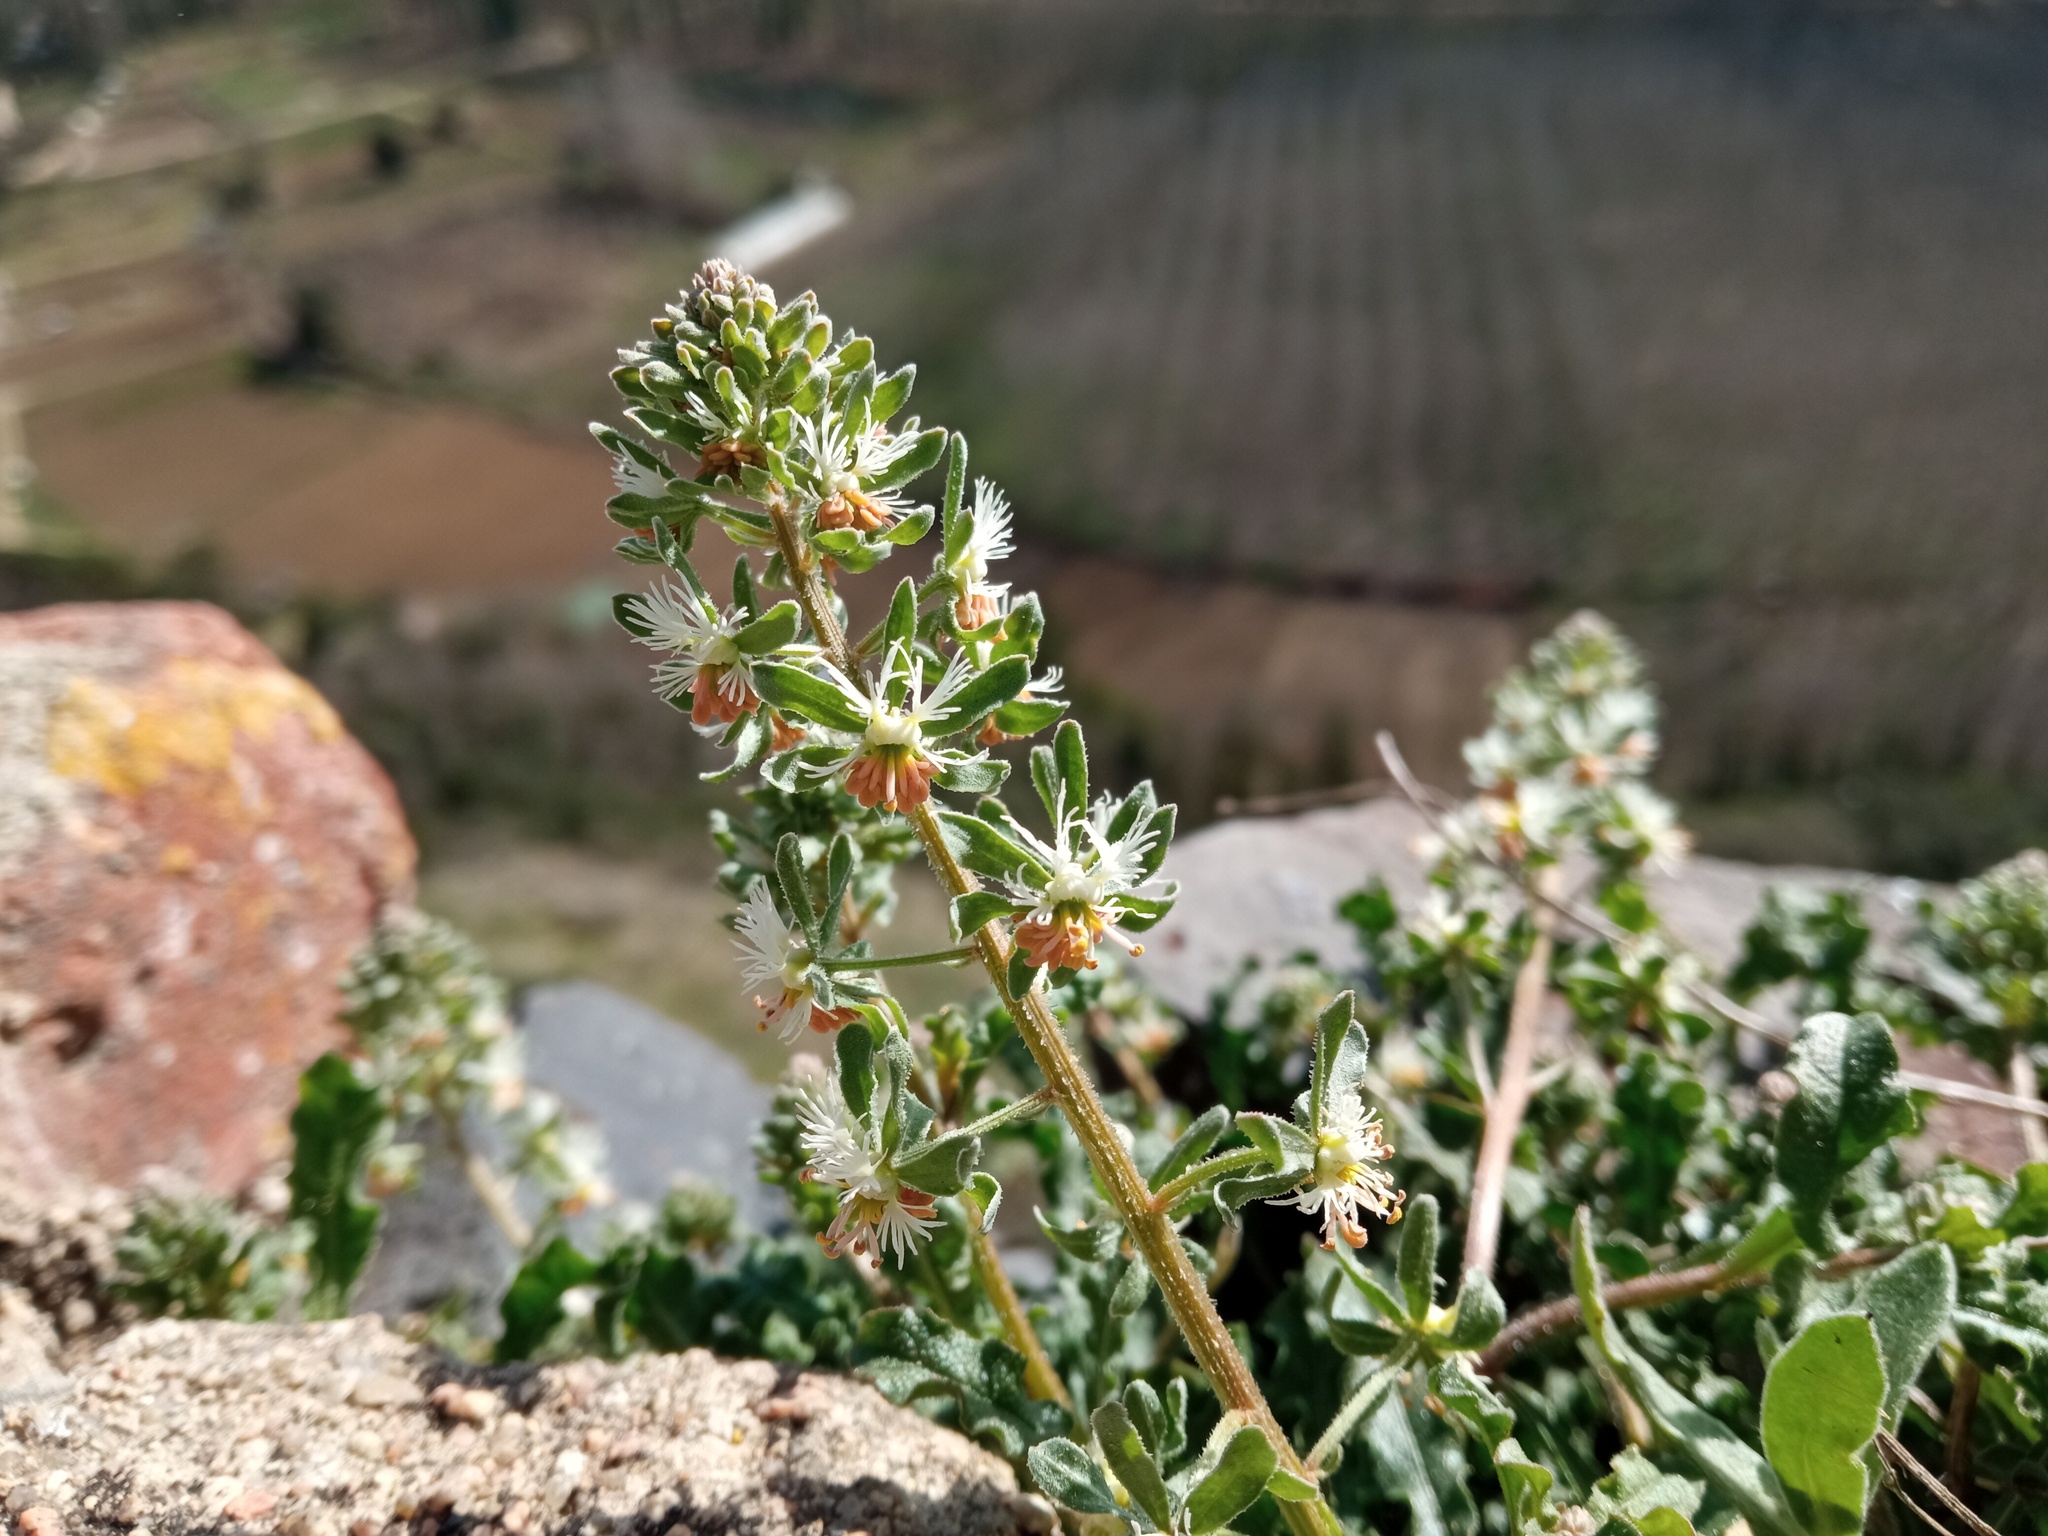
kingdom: Plantae
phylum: Tracheophyta
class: Magnoliopsida
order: Brassicales
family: Resedaceae
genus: Reseda
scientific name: Reseda phyteuma
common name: Corn mignonette
